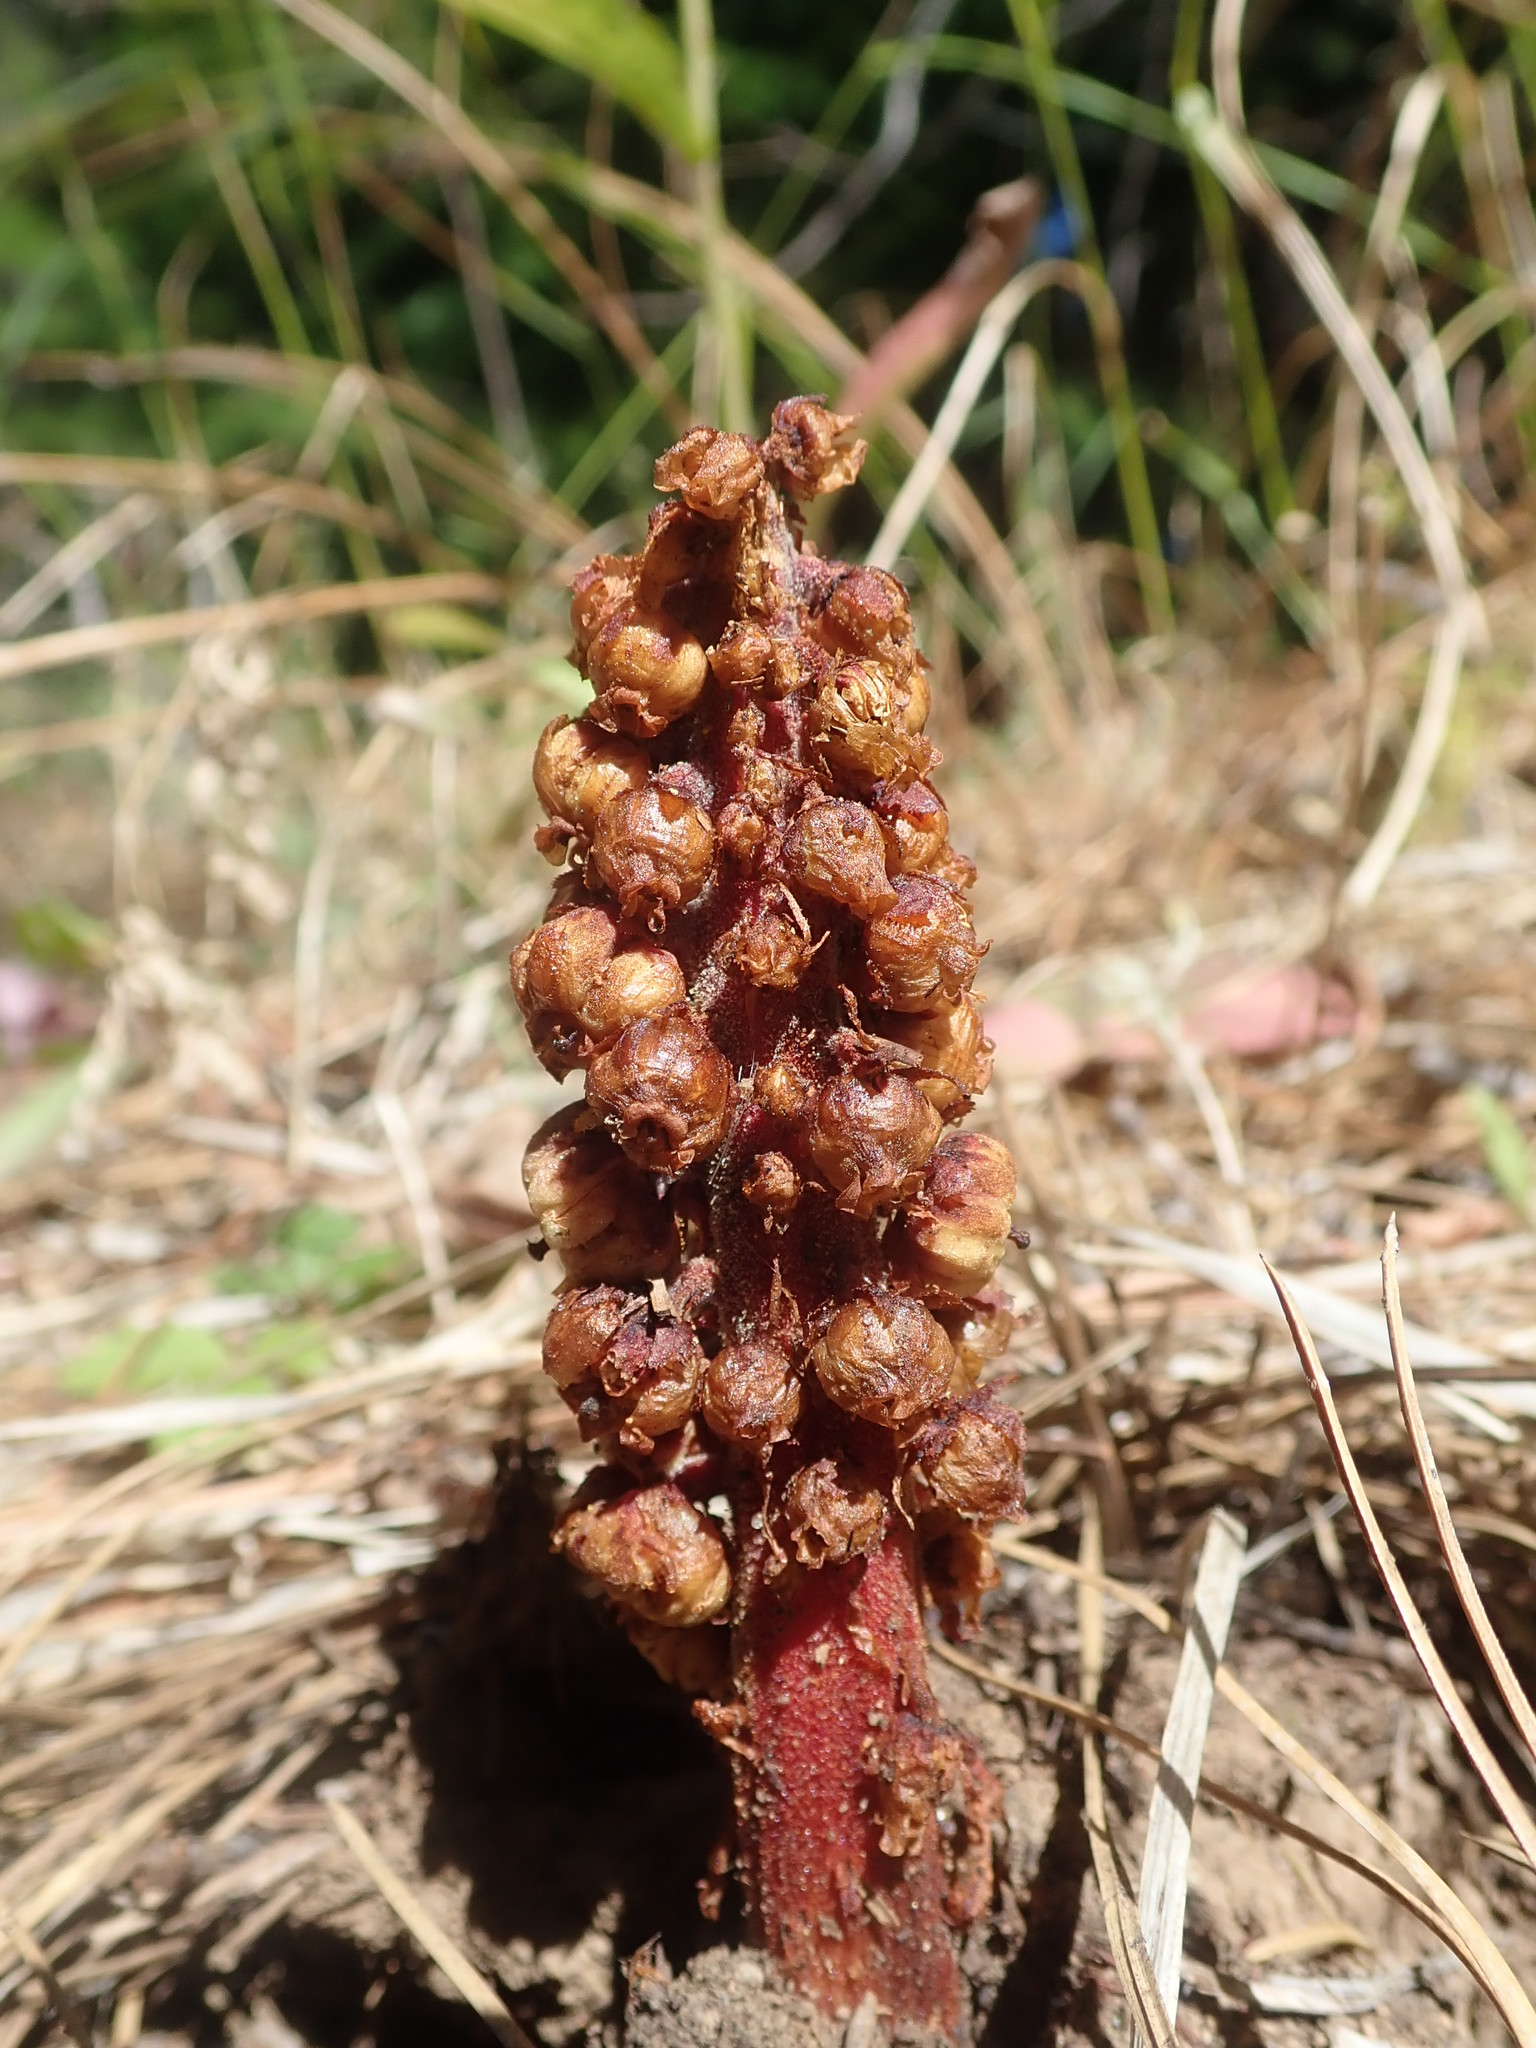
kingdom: Plantae
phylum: Tracheophyta
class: Magnoliopsida
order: Ericales
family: Ericaceae
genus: Pterospora
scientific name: Pterospora andromedea
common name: Giant bird's-nest
